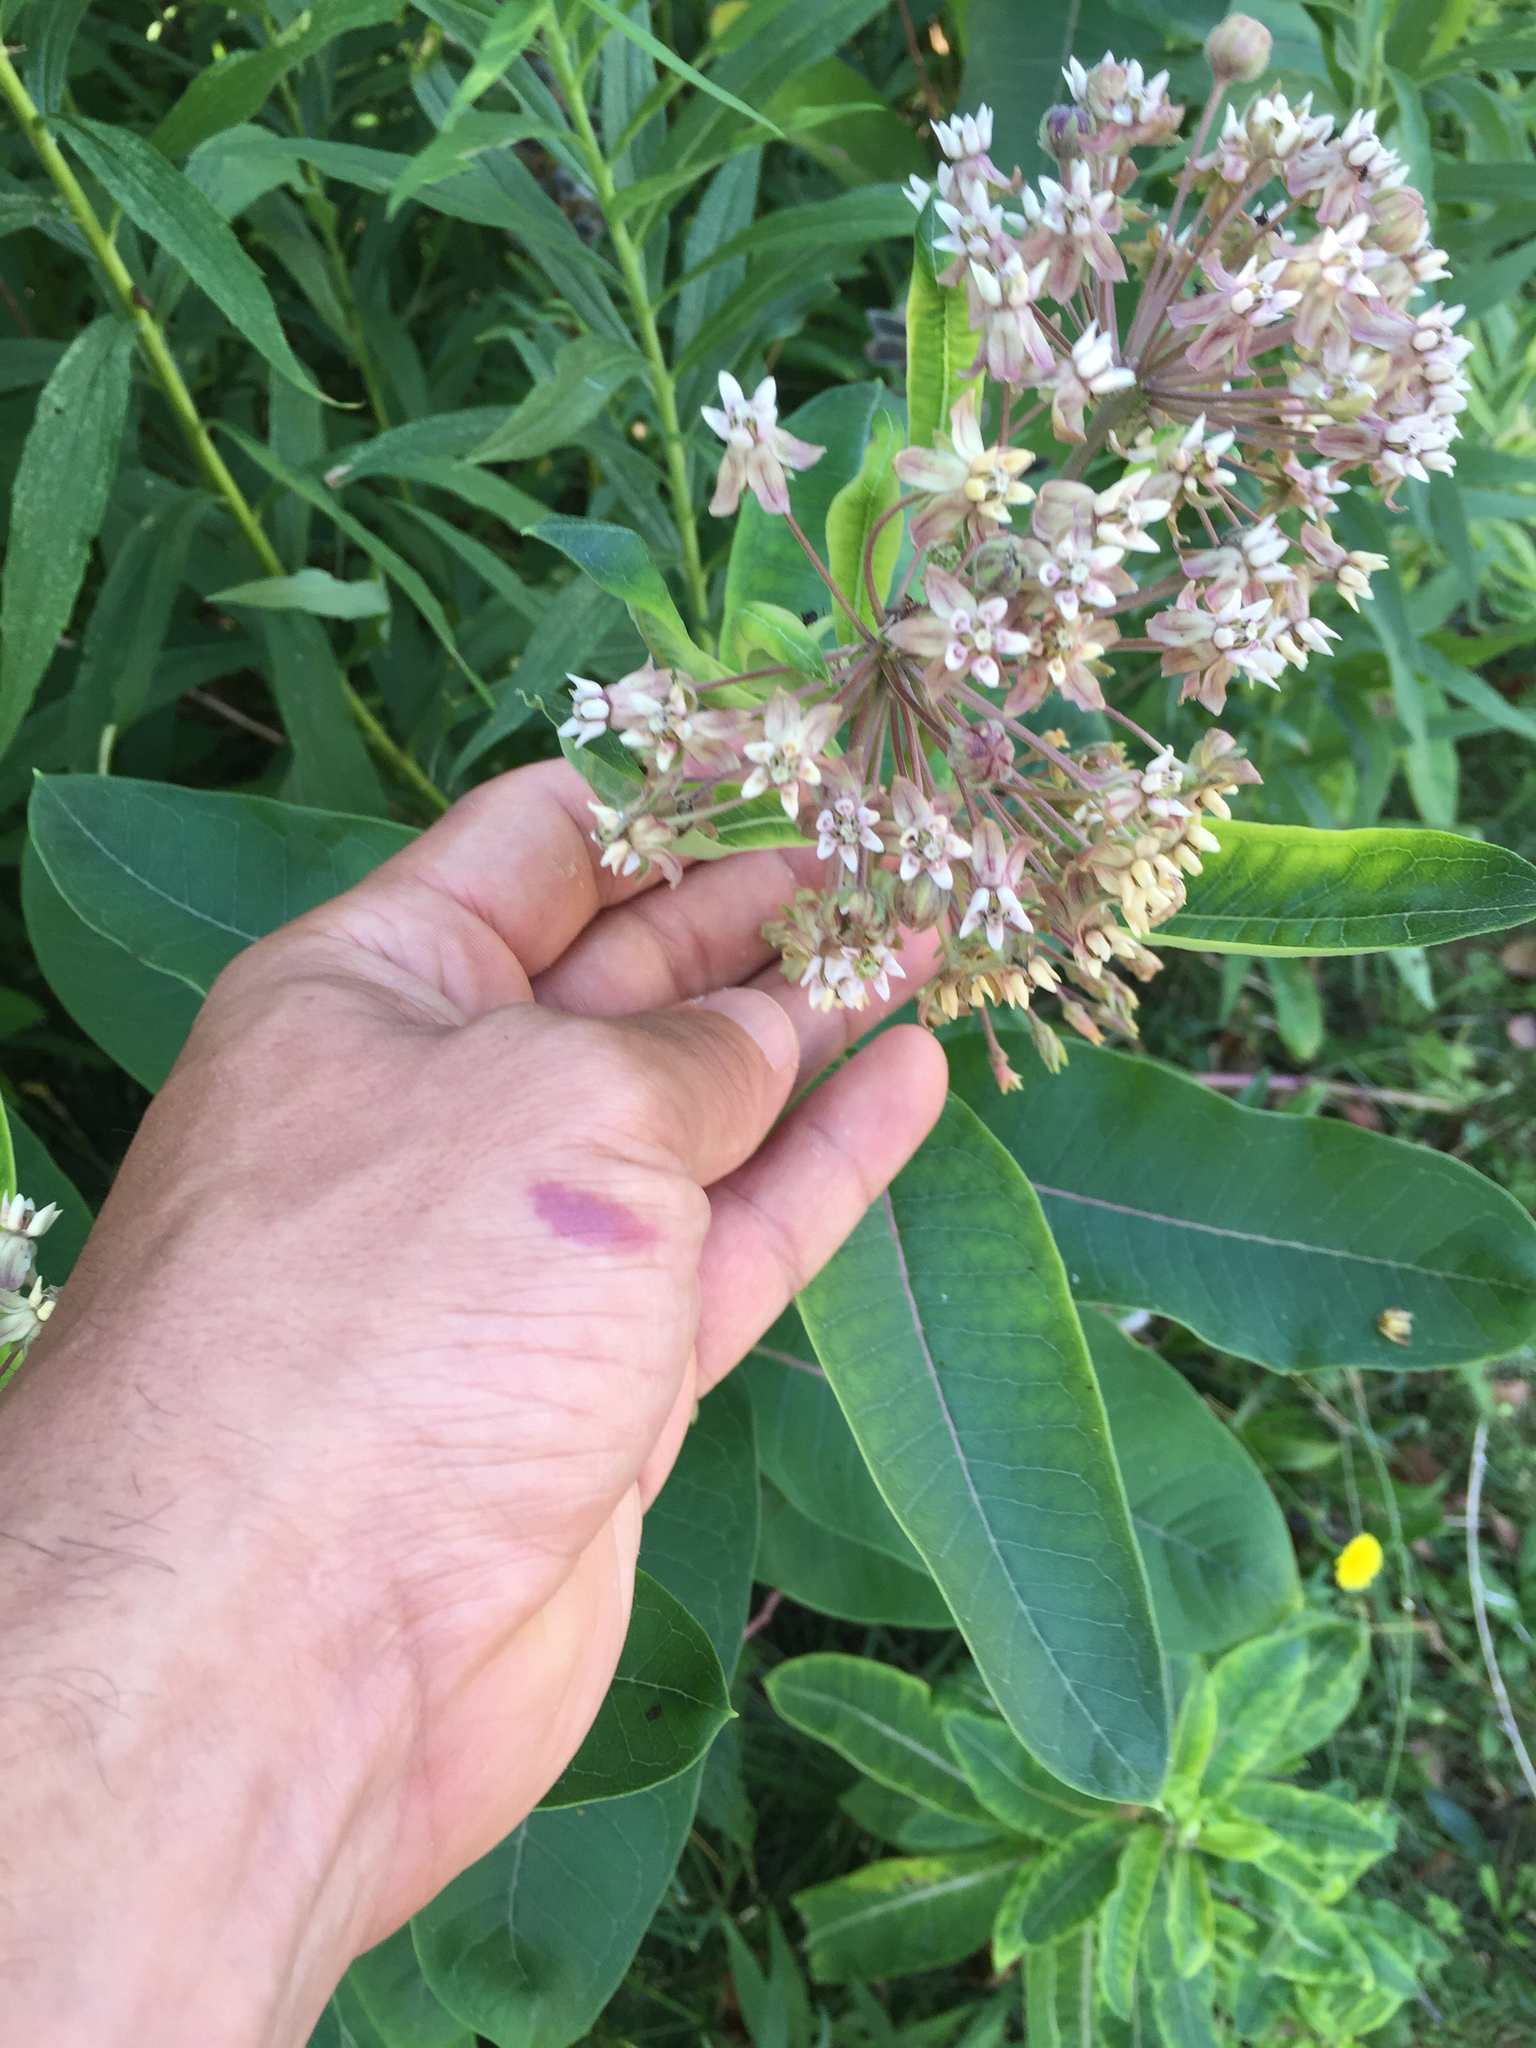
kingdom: Plantae
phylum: Tracheophyta
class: Magnoliopsida
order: Gentianales
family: Apocynaceae
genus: Asclepias
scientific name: Asclepias syriaca
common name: Common milkweed
